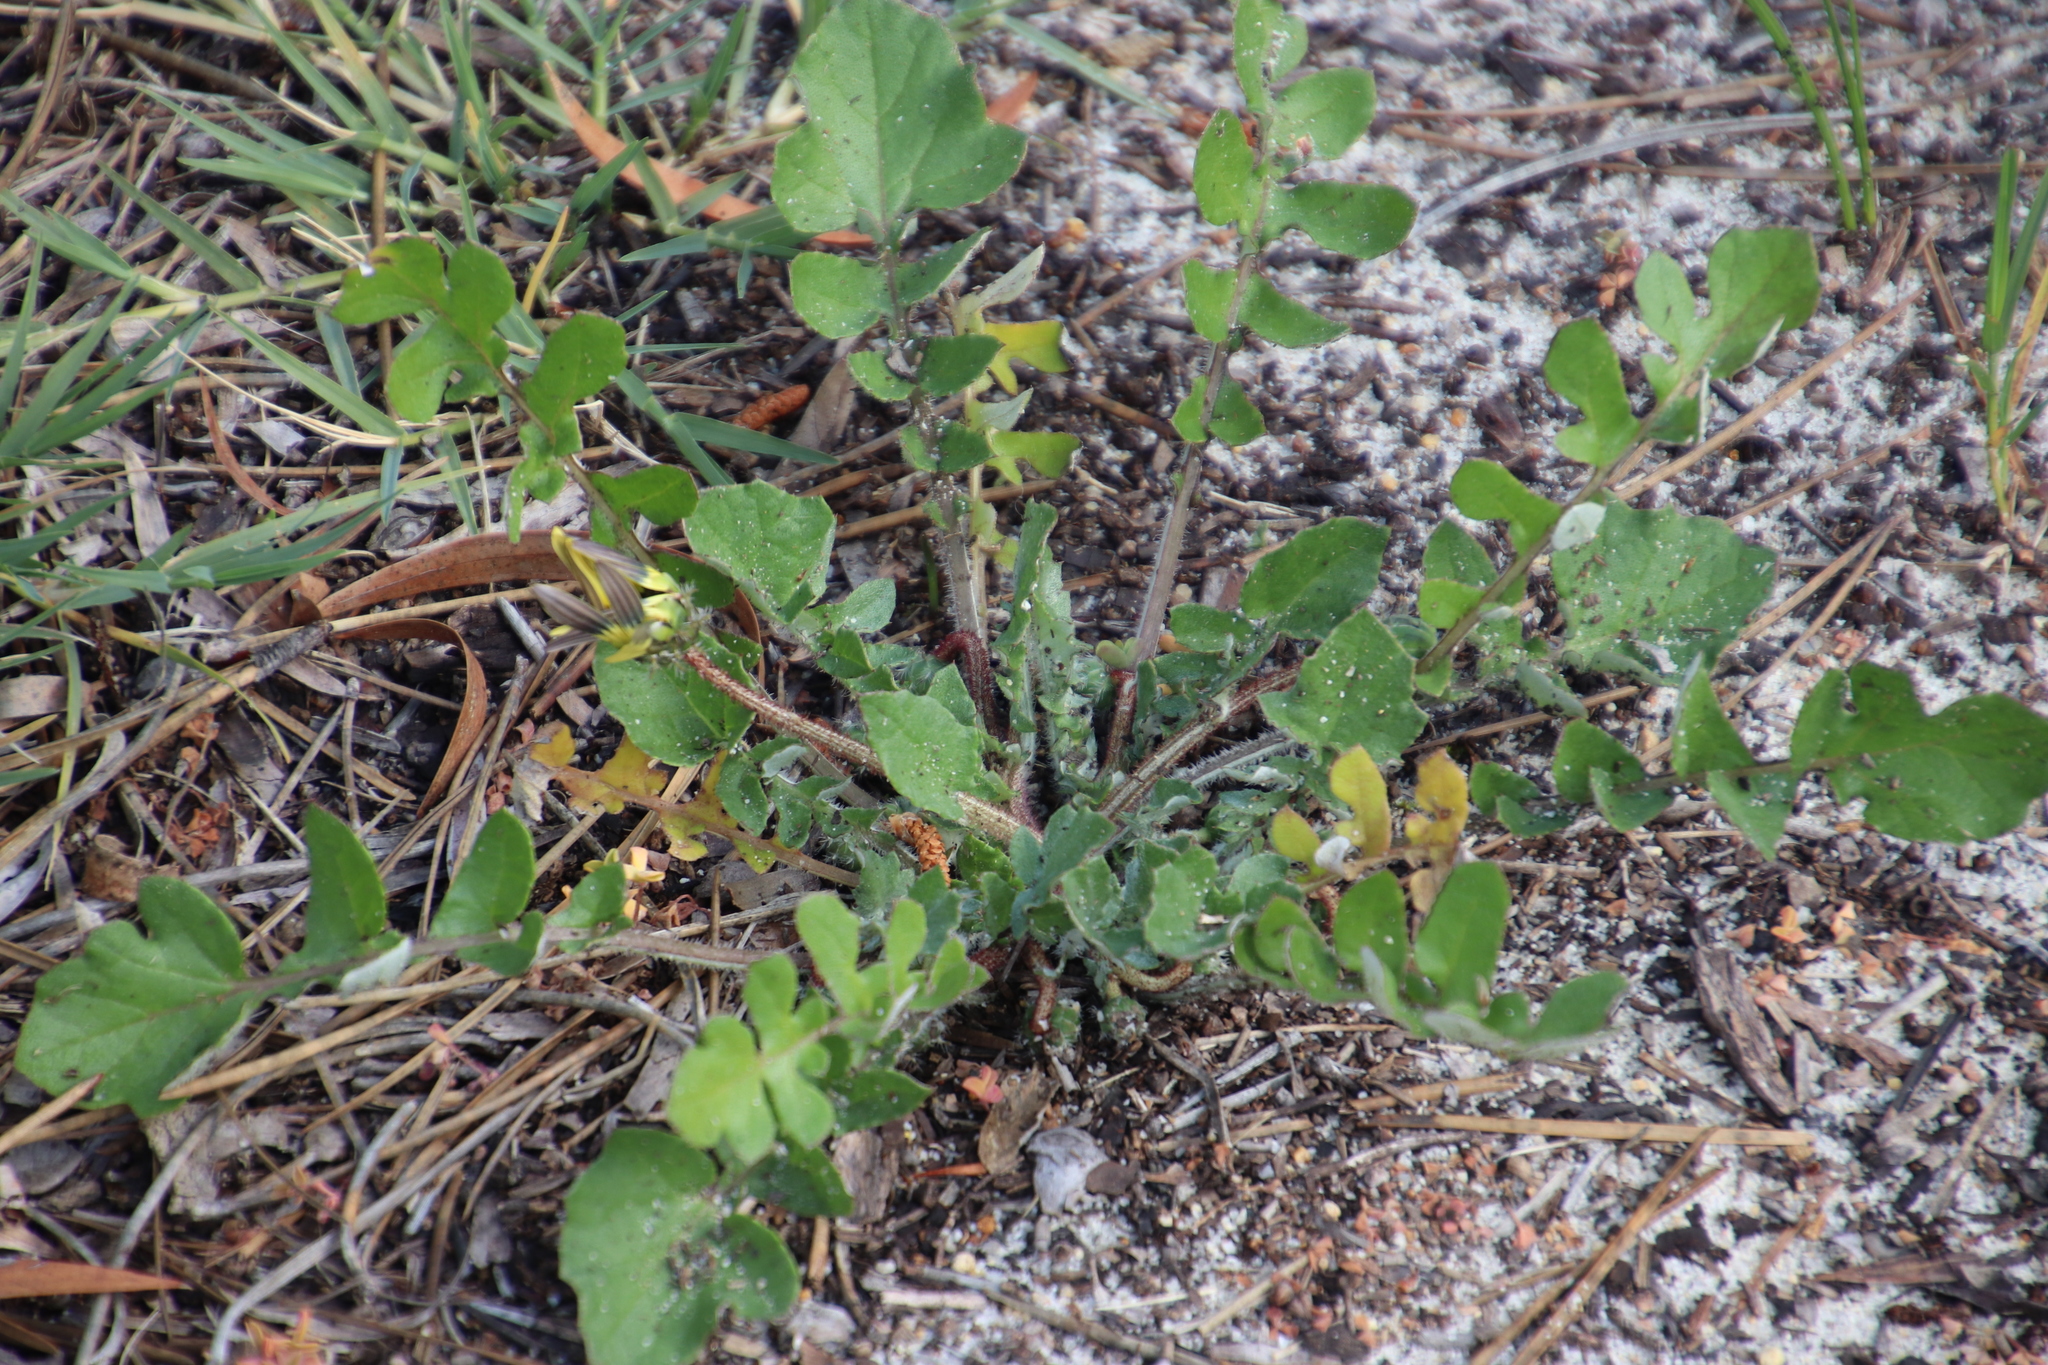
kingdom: Plantae
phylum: Tracheophyta
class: Magnoliopsida
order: Asterales
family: Asteraceae
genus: Arctotheca
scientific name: Arctotheca calendula
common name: Capeweed
